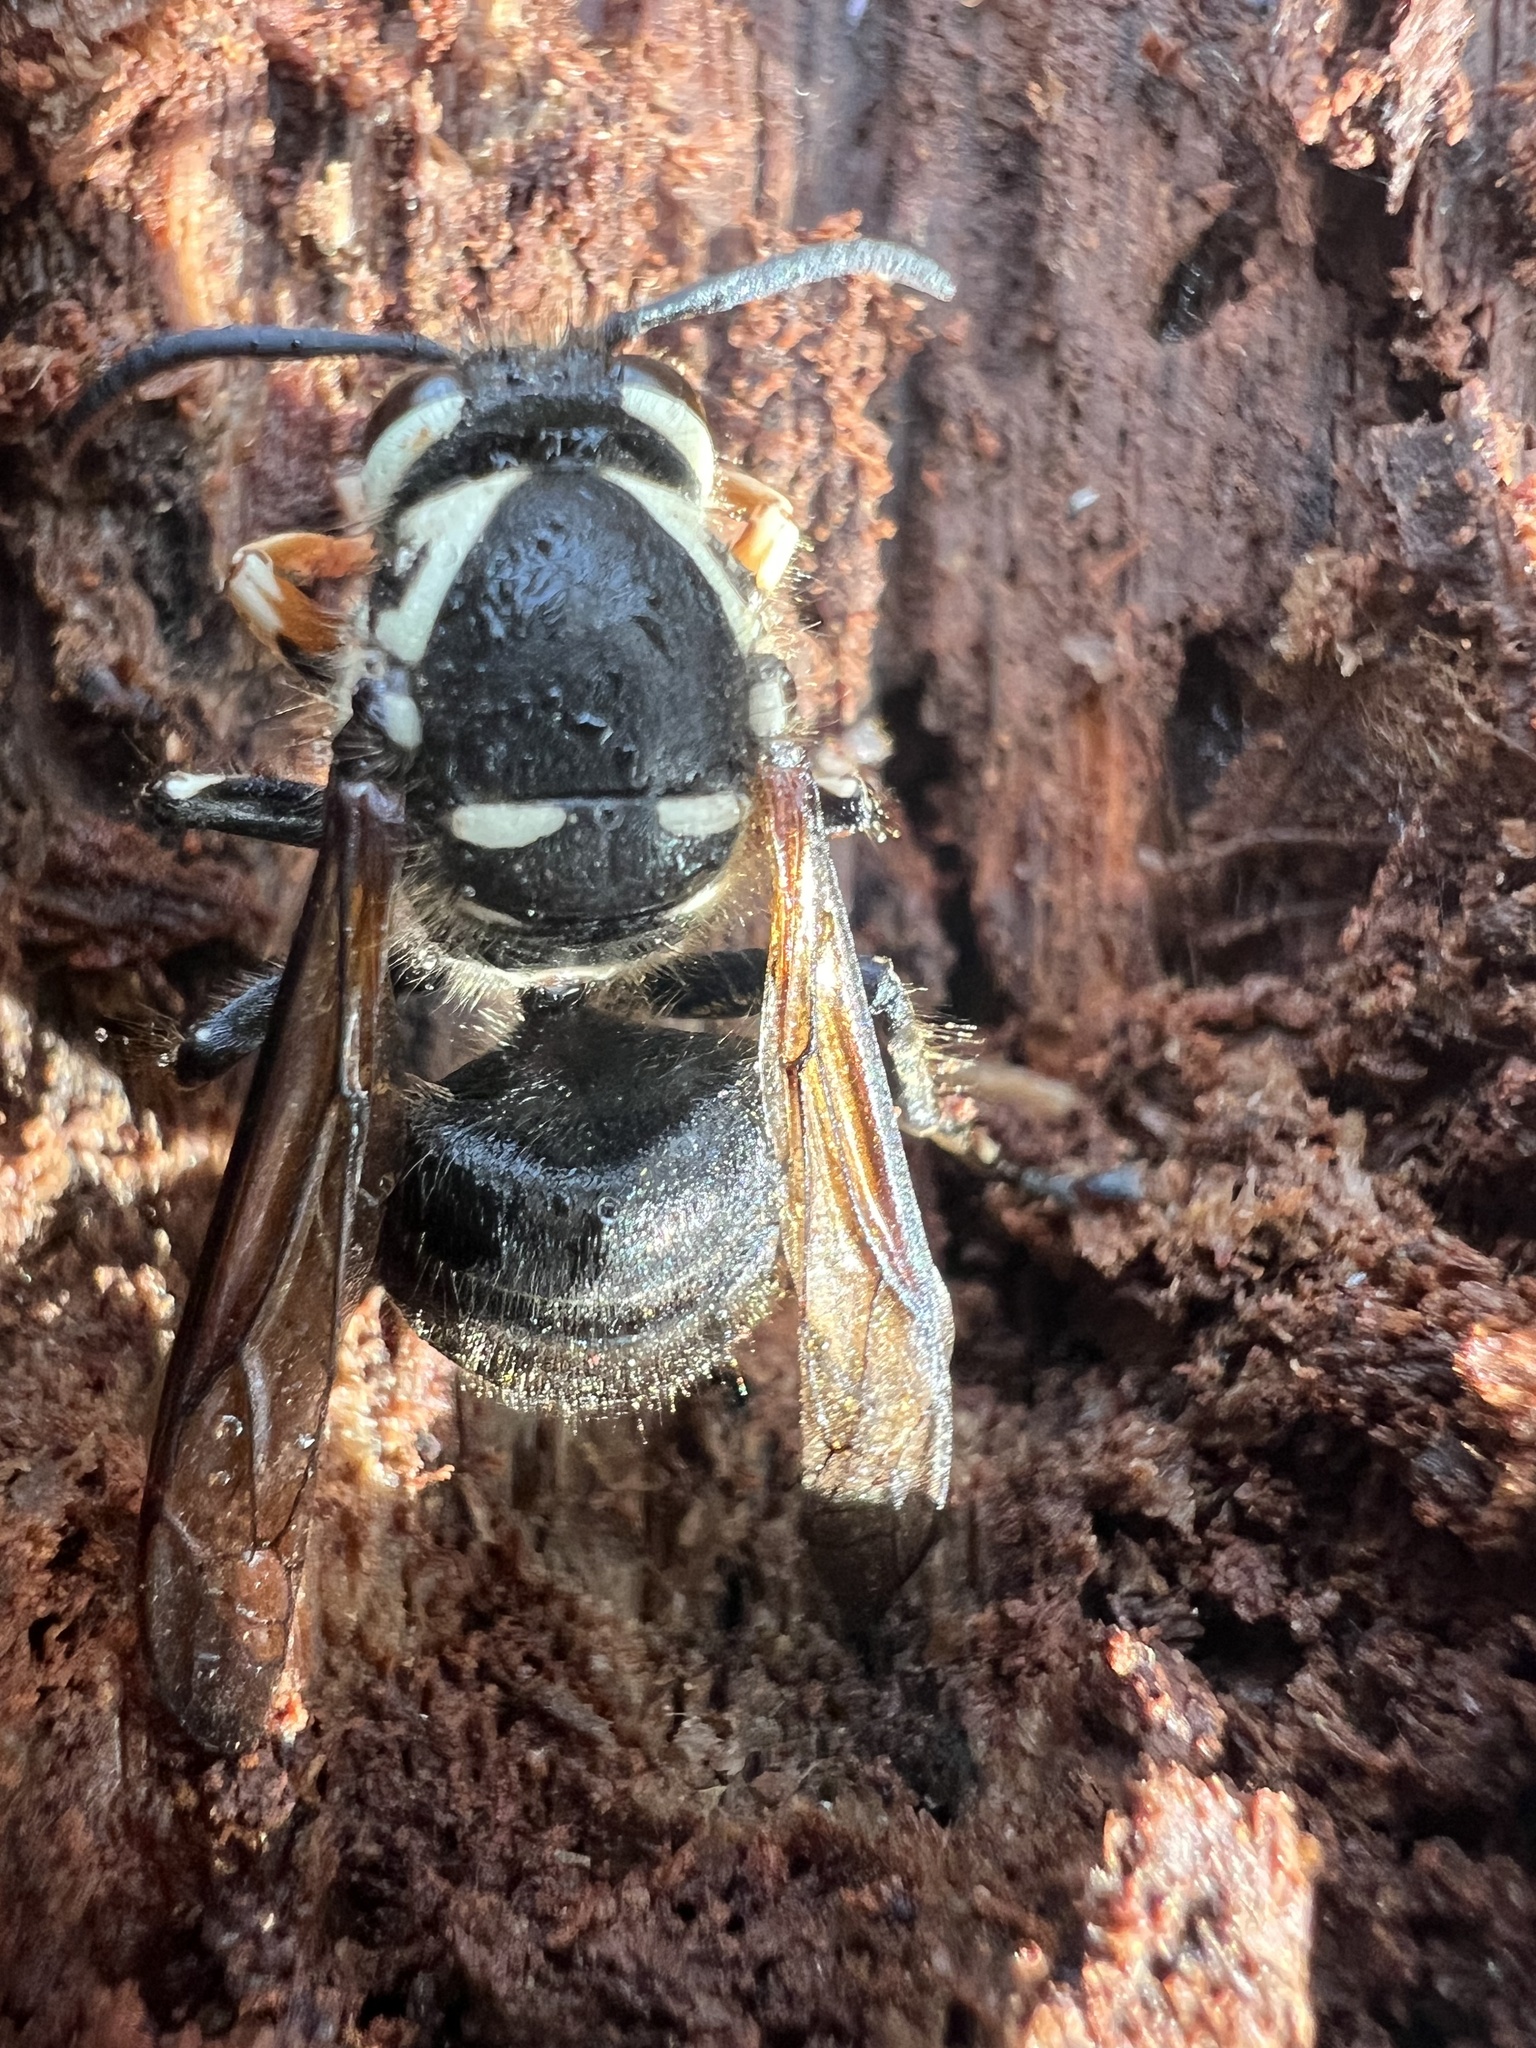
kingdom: Animalia
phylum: Arthropoda
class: Insecta
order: Hymenoptera
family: Vespidae
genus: Dolichovespula
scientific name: Dolichovespula maculata
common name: Bald-faced hornet
